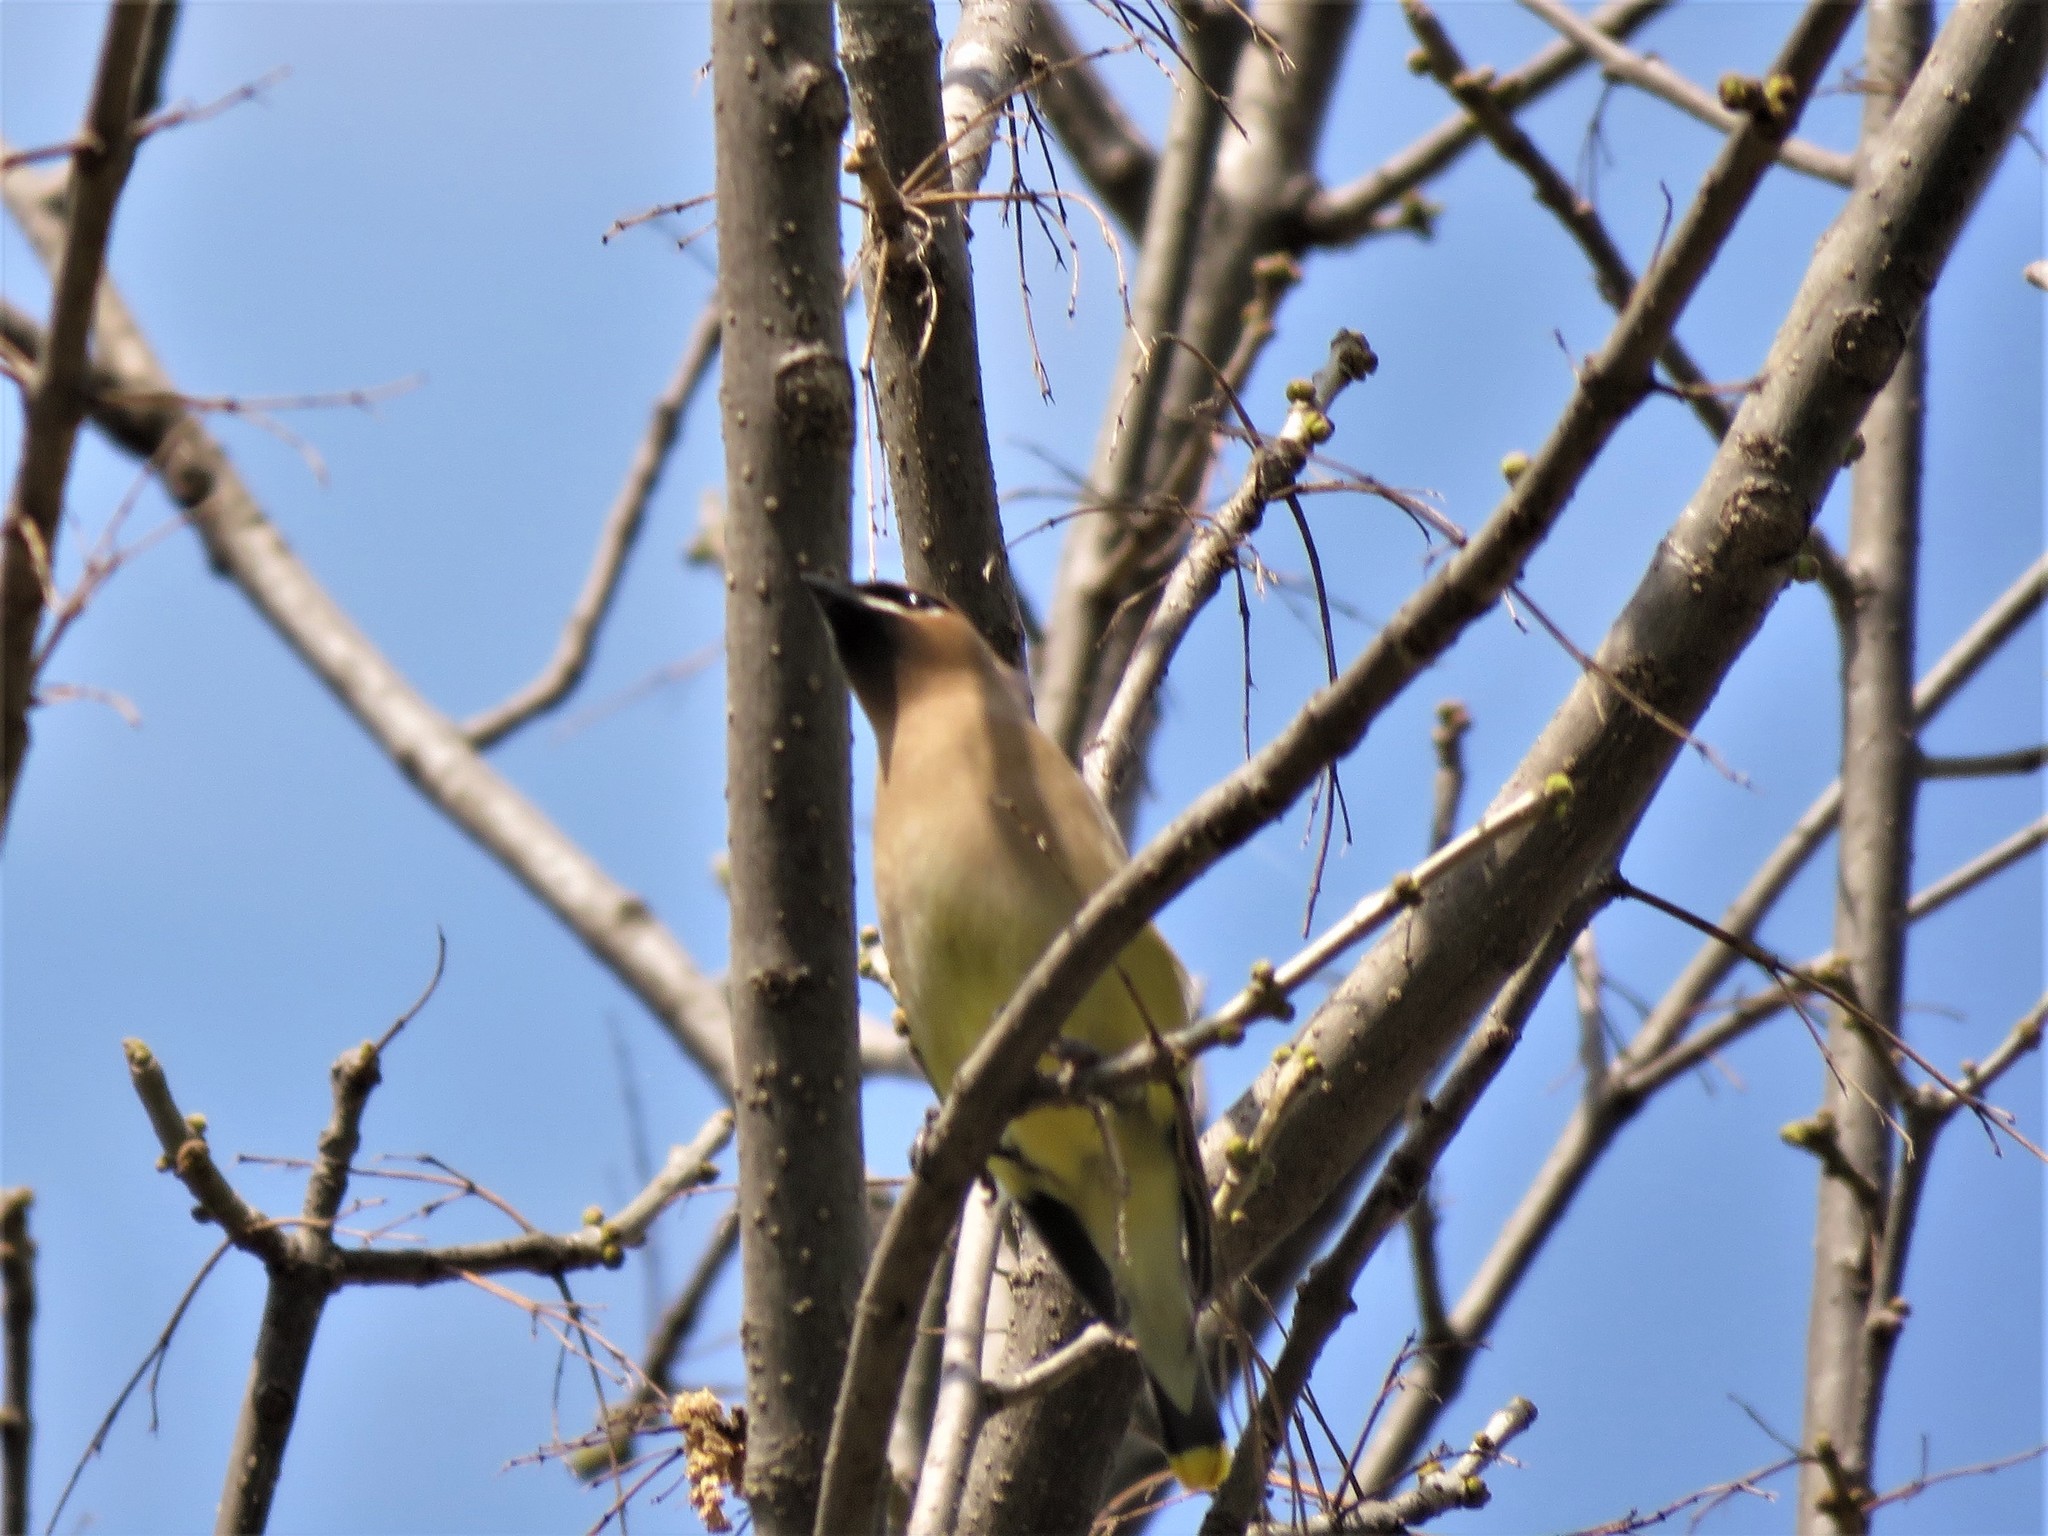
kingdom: Animalia
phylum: Chordata
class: Aves
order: Passeriformes
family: Bombycillidae
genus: Bombycilla
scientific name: Bombycilla cedrorum
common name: Cedar waxwing
